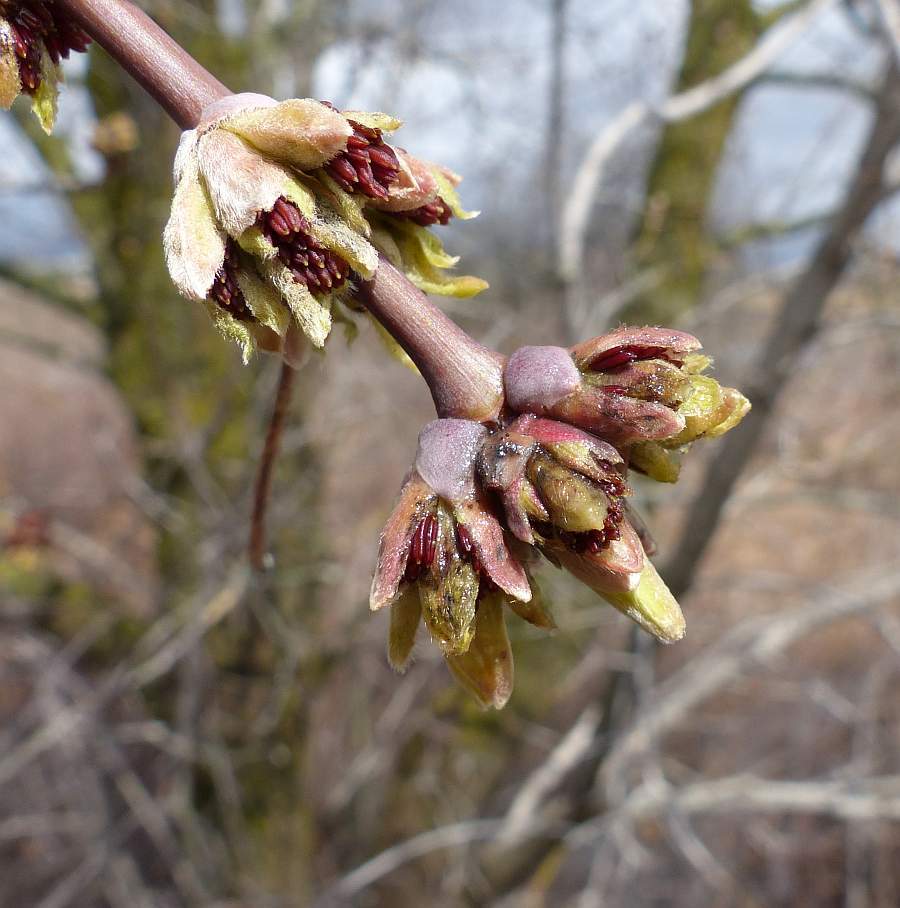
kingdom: Plantae
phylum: Tracheophyta
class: Magnoliopsida
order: Sapindales
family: Sapindaceae
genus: Acer
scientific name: Acer negundo
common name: Ashleaf maple
